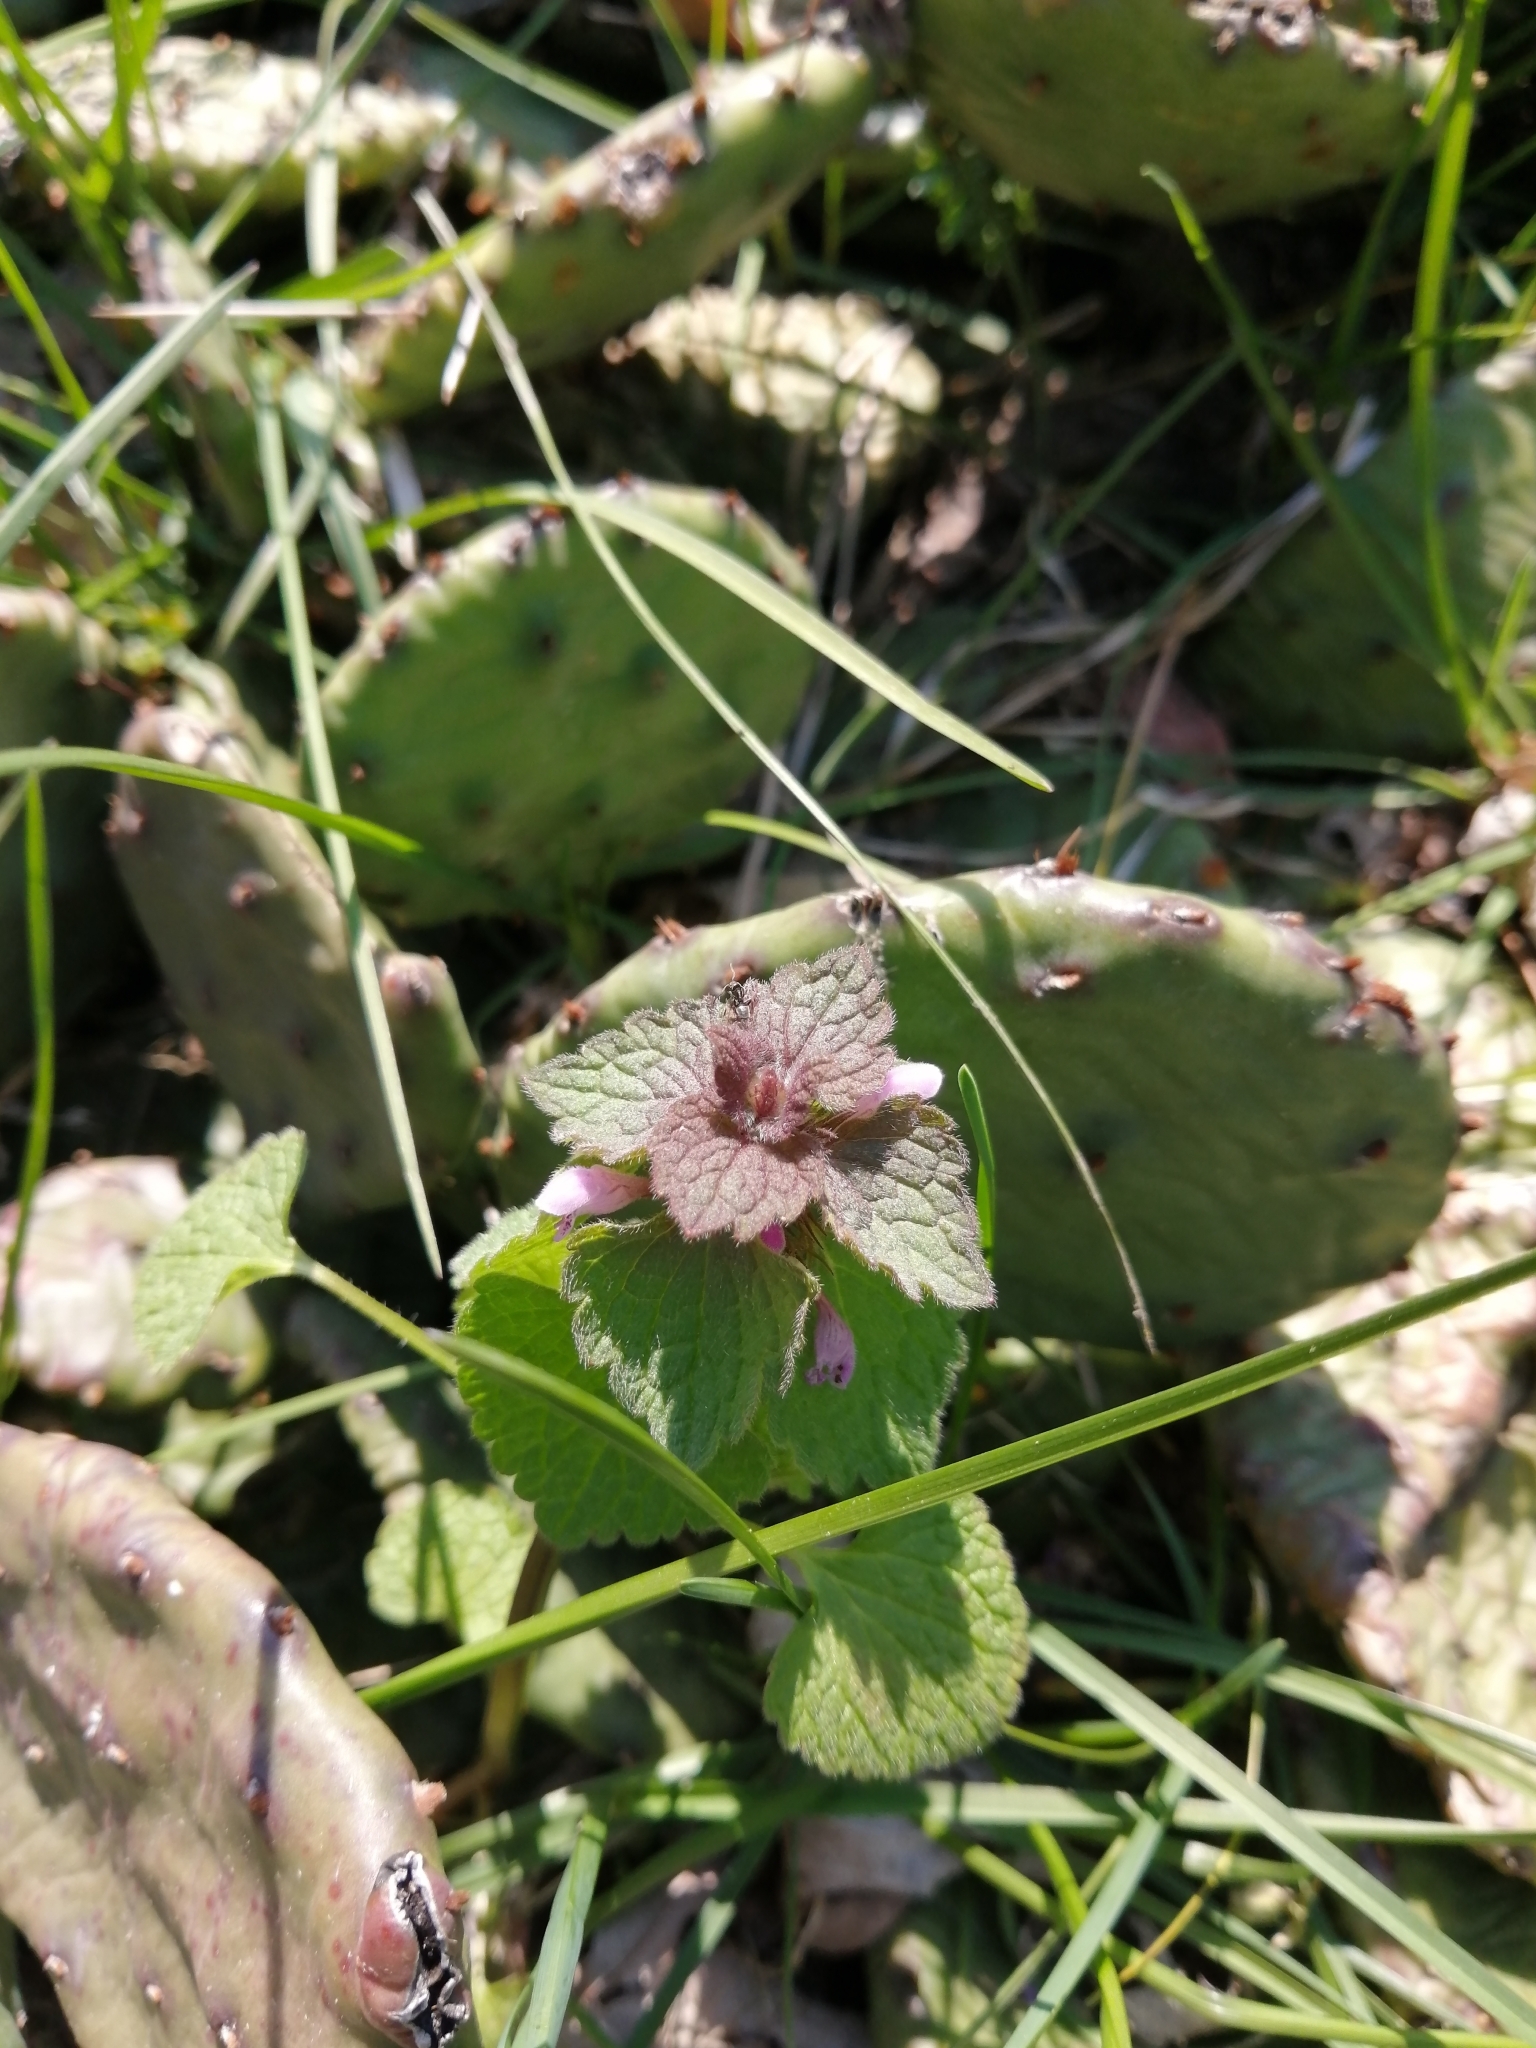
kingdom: Plantae
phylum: Tracheophyta
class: Magnoliopsida
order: Lamiales
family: Lamiaceae
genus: Lamium
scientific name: Lamium purpureum
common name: Red dead-nettle
